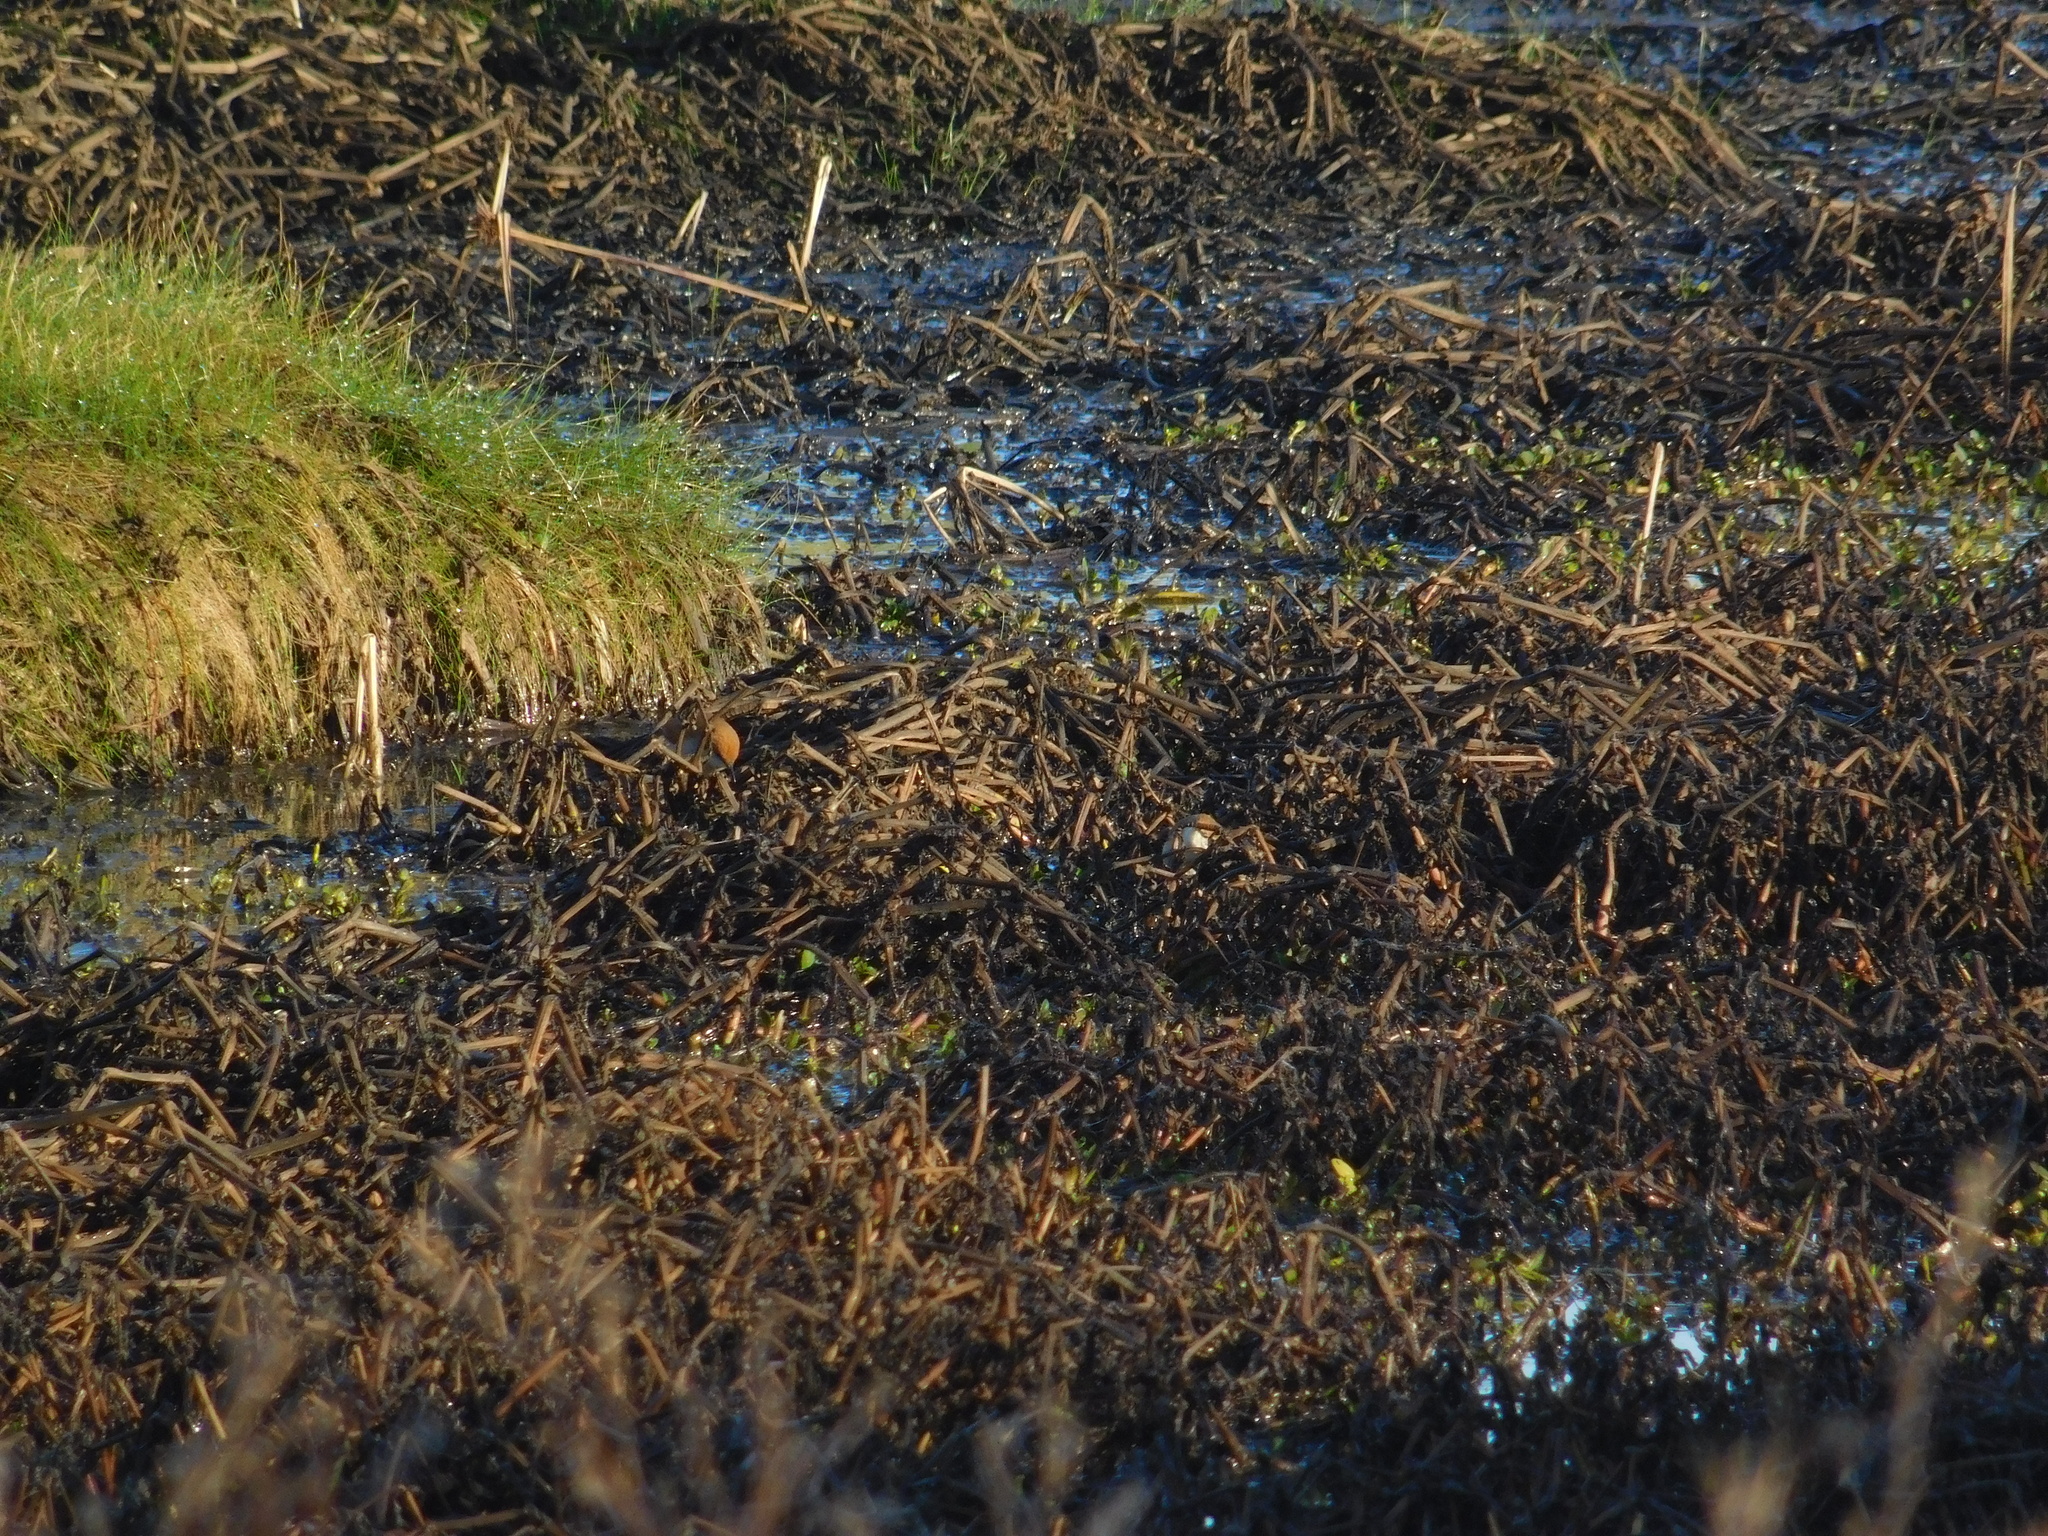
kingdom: Animalia
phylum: Chordata
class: Aves
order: Passeriformes
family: Furnariidae
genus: Certhiaxis
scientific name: Certhiaxis cinnamomeus
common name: Yellow-chinned spinetail
